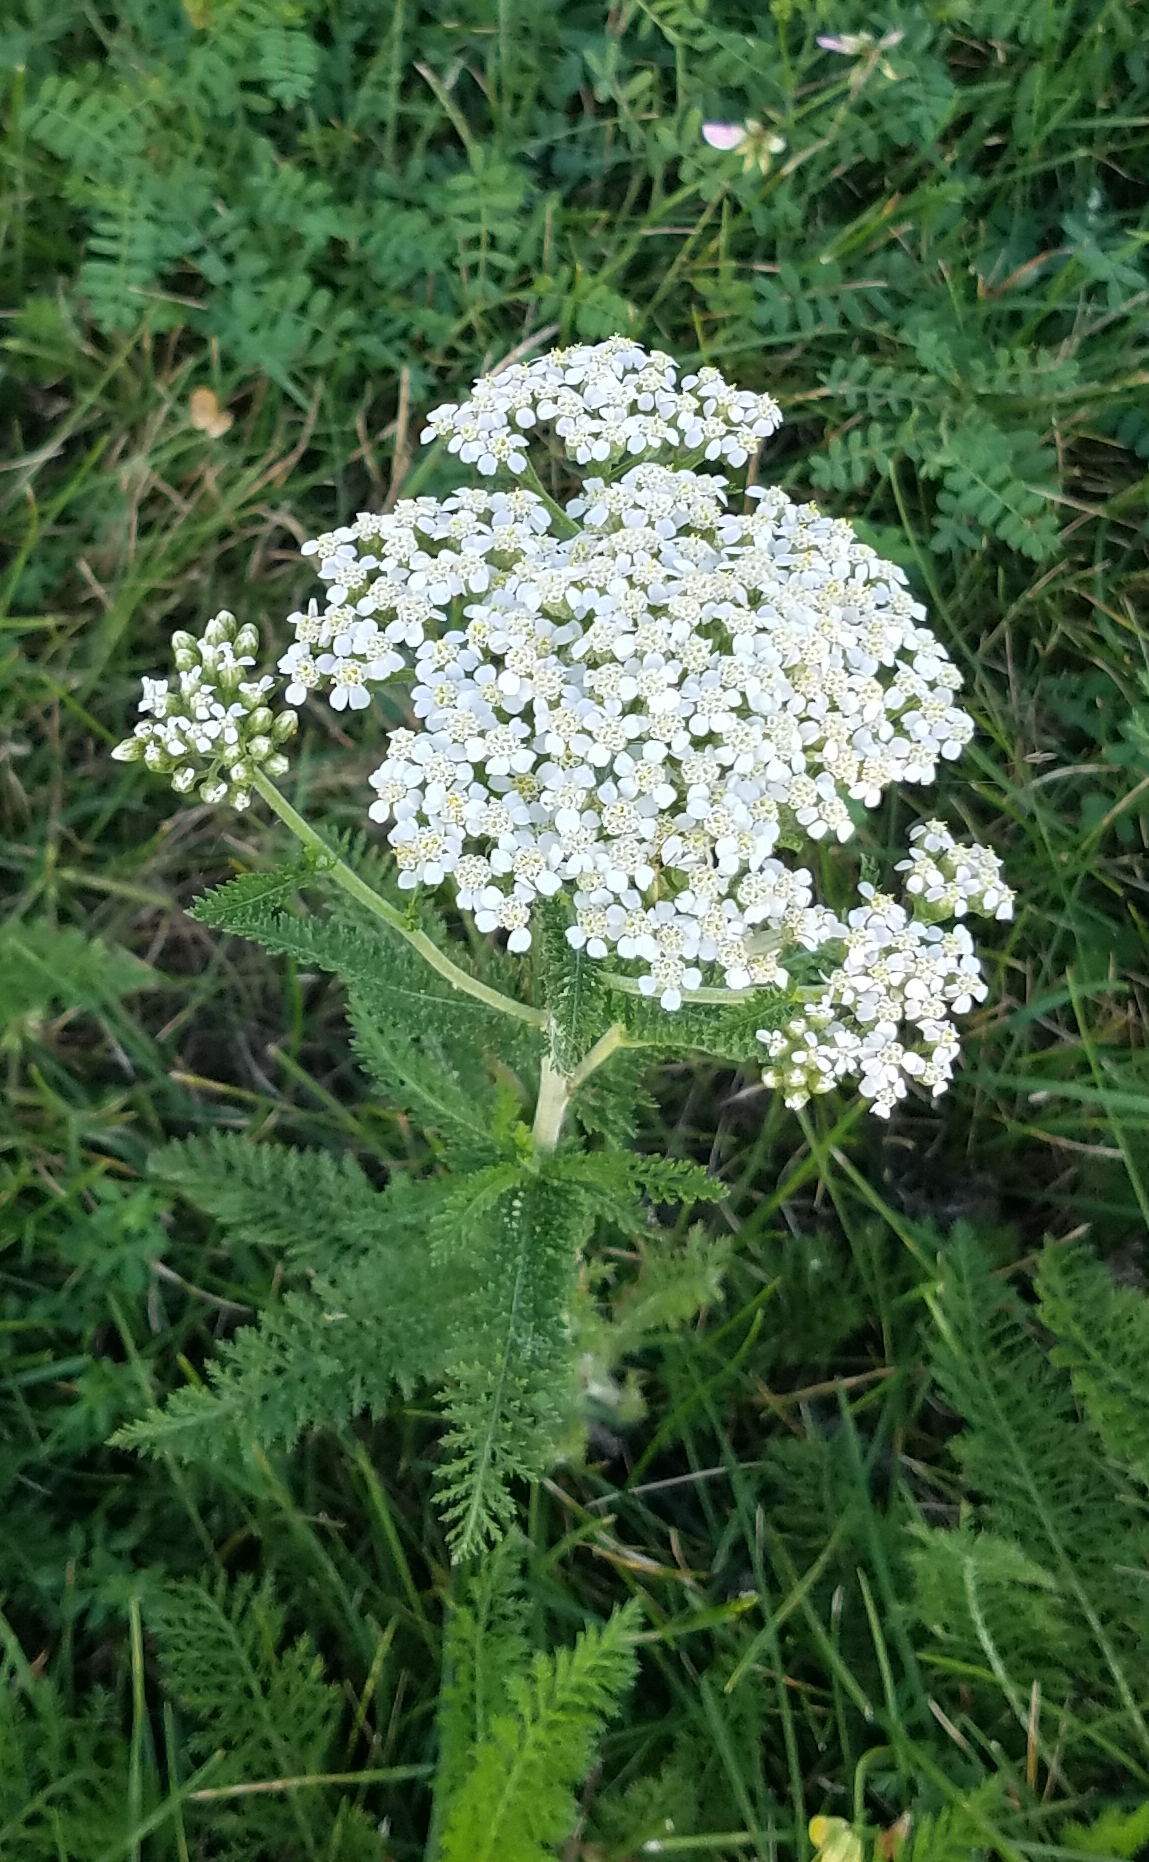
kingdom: Plantae
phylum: Tracheophyta
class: Magnoliopsida
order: Asterales
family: Asteraceae
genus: Achillea
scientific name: Achillea millefolium
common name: Yarrow
